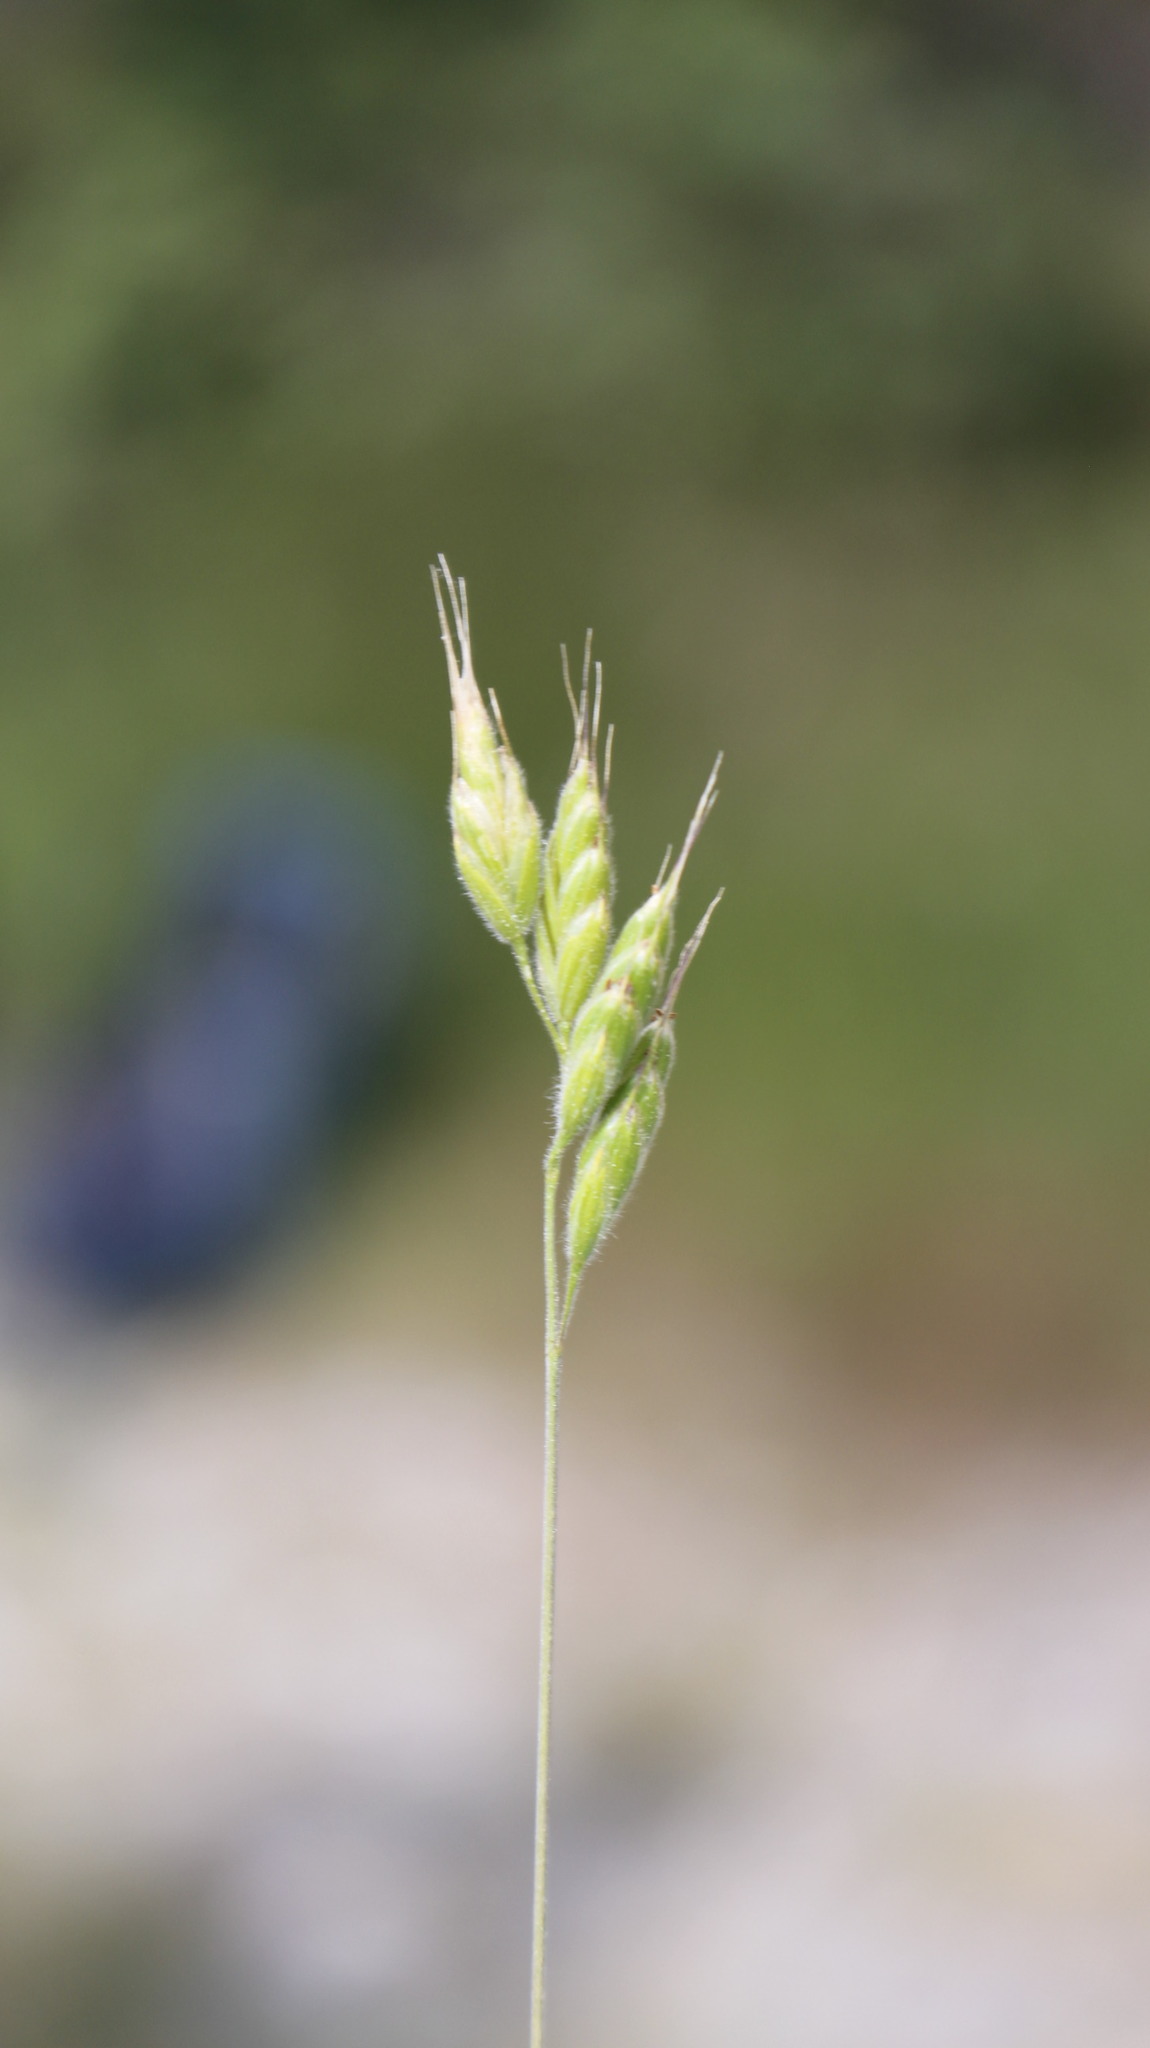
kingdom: Plantae
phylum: Tracheophyta
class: Liliopsida
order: Poales
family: Poaceae
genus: Bromus
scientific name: Bromus hordeaceus
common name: Soft brome
